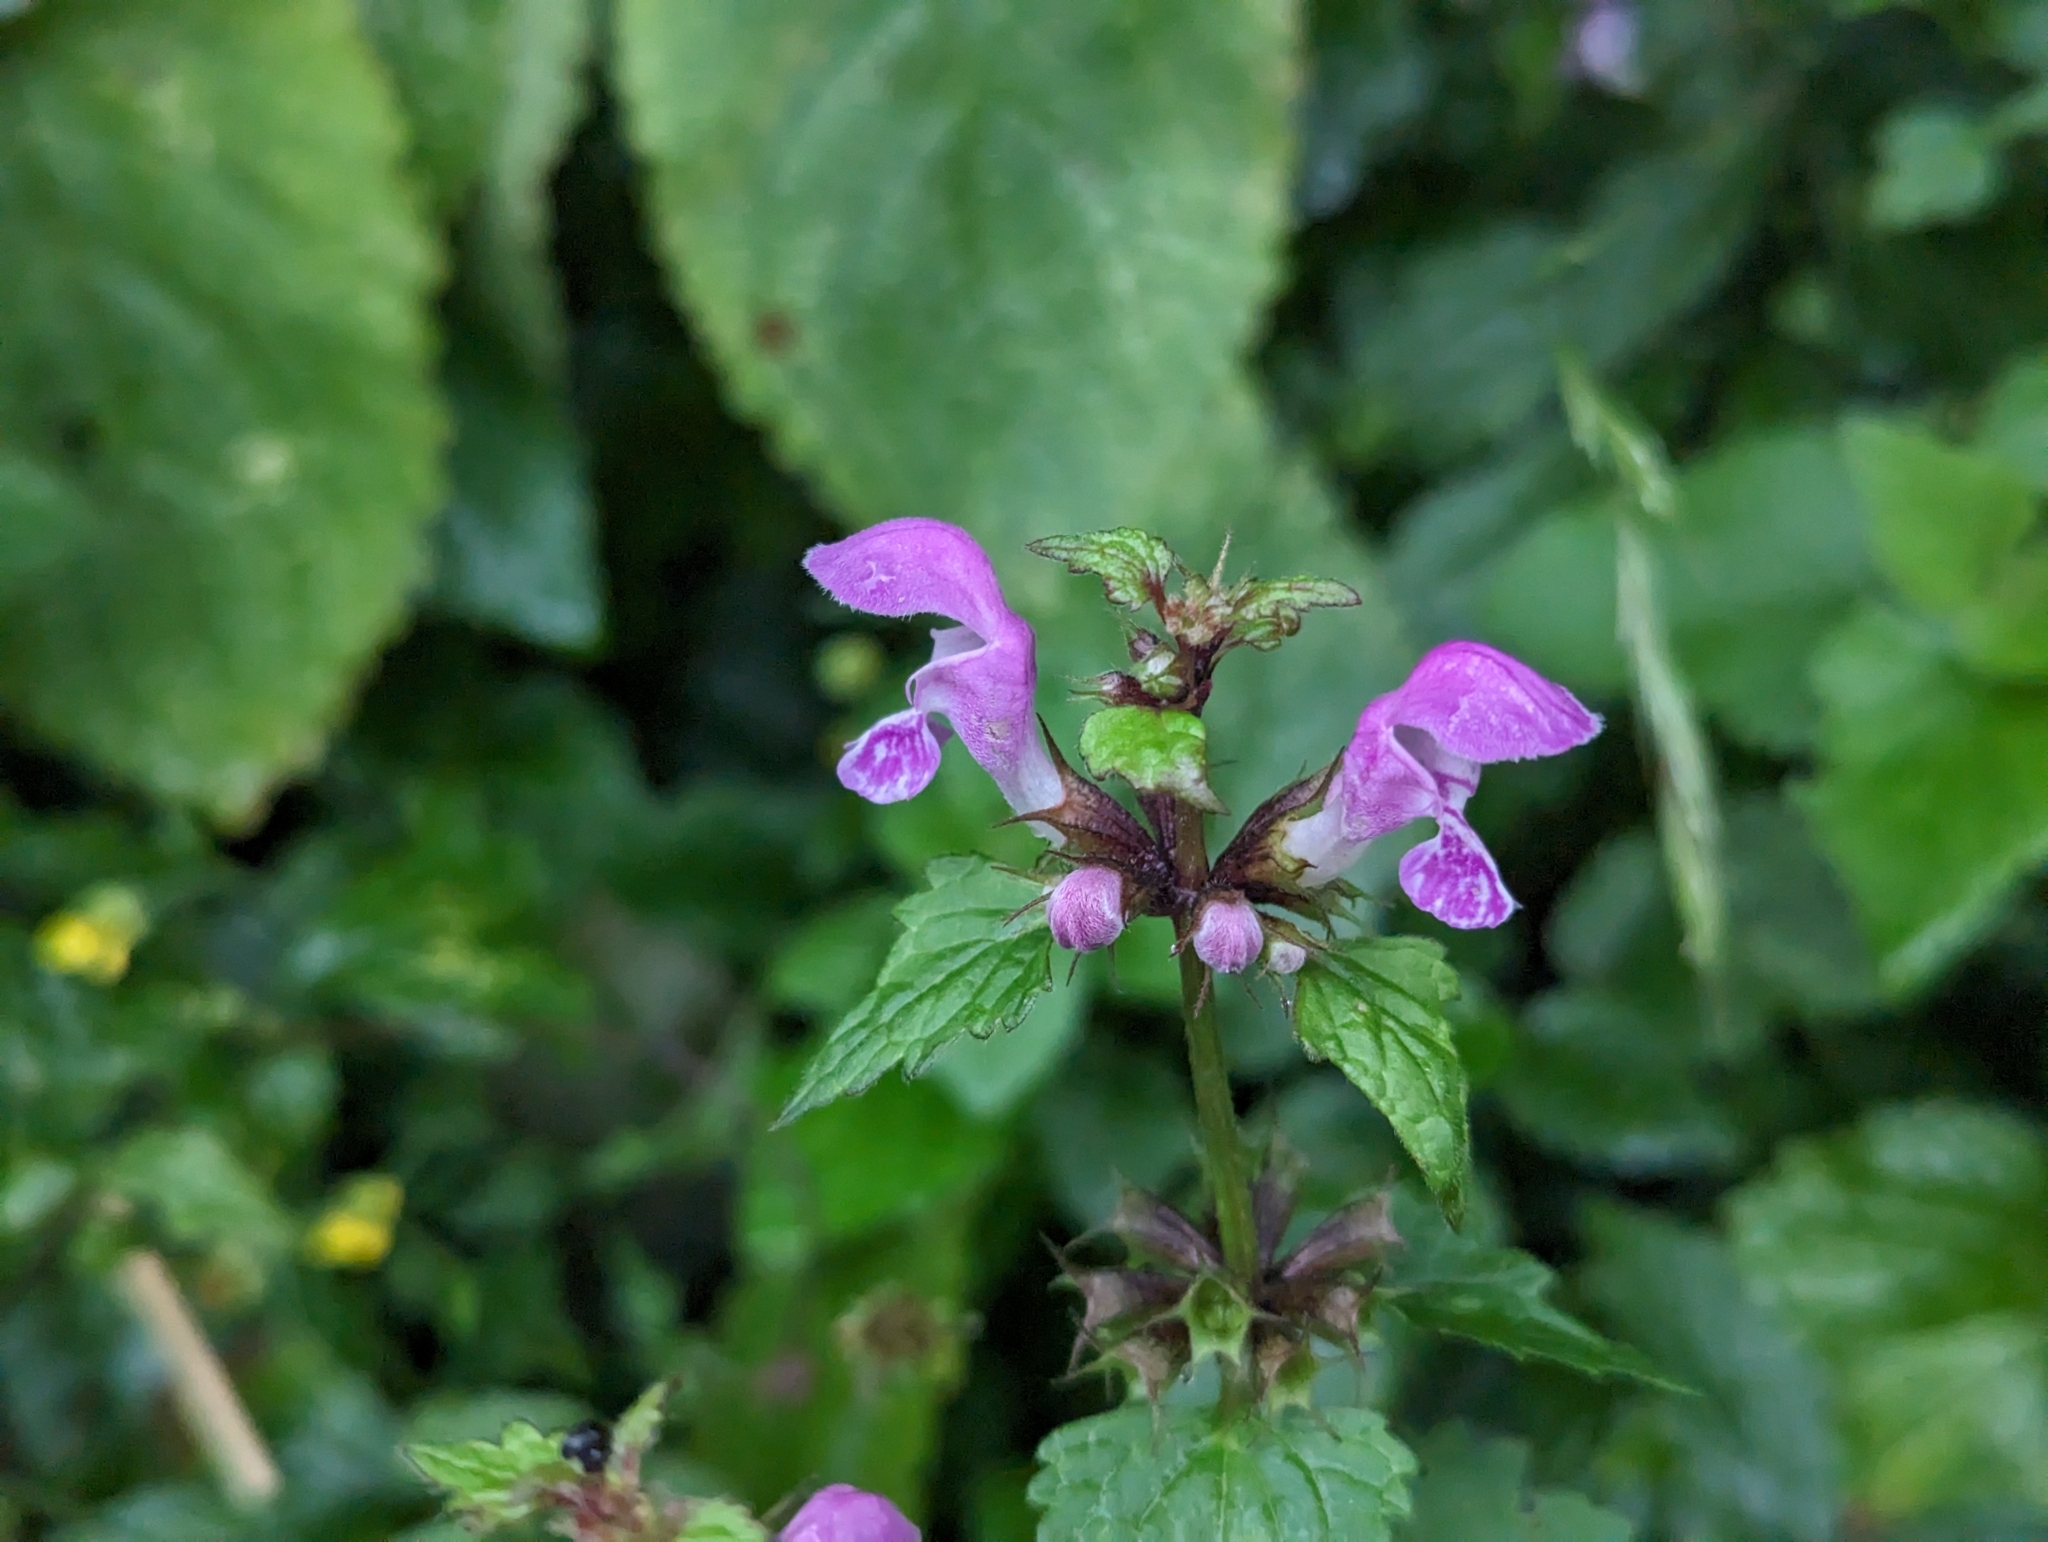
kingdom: Plantae
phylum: Tracheophyta
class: Magnoliopsida
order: Lamiales
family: Lamiaceae
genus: Lamium
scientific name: Lamium maculatum
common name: Spotted dead-nettle
